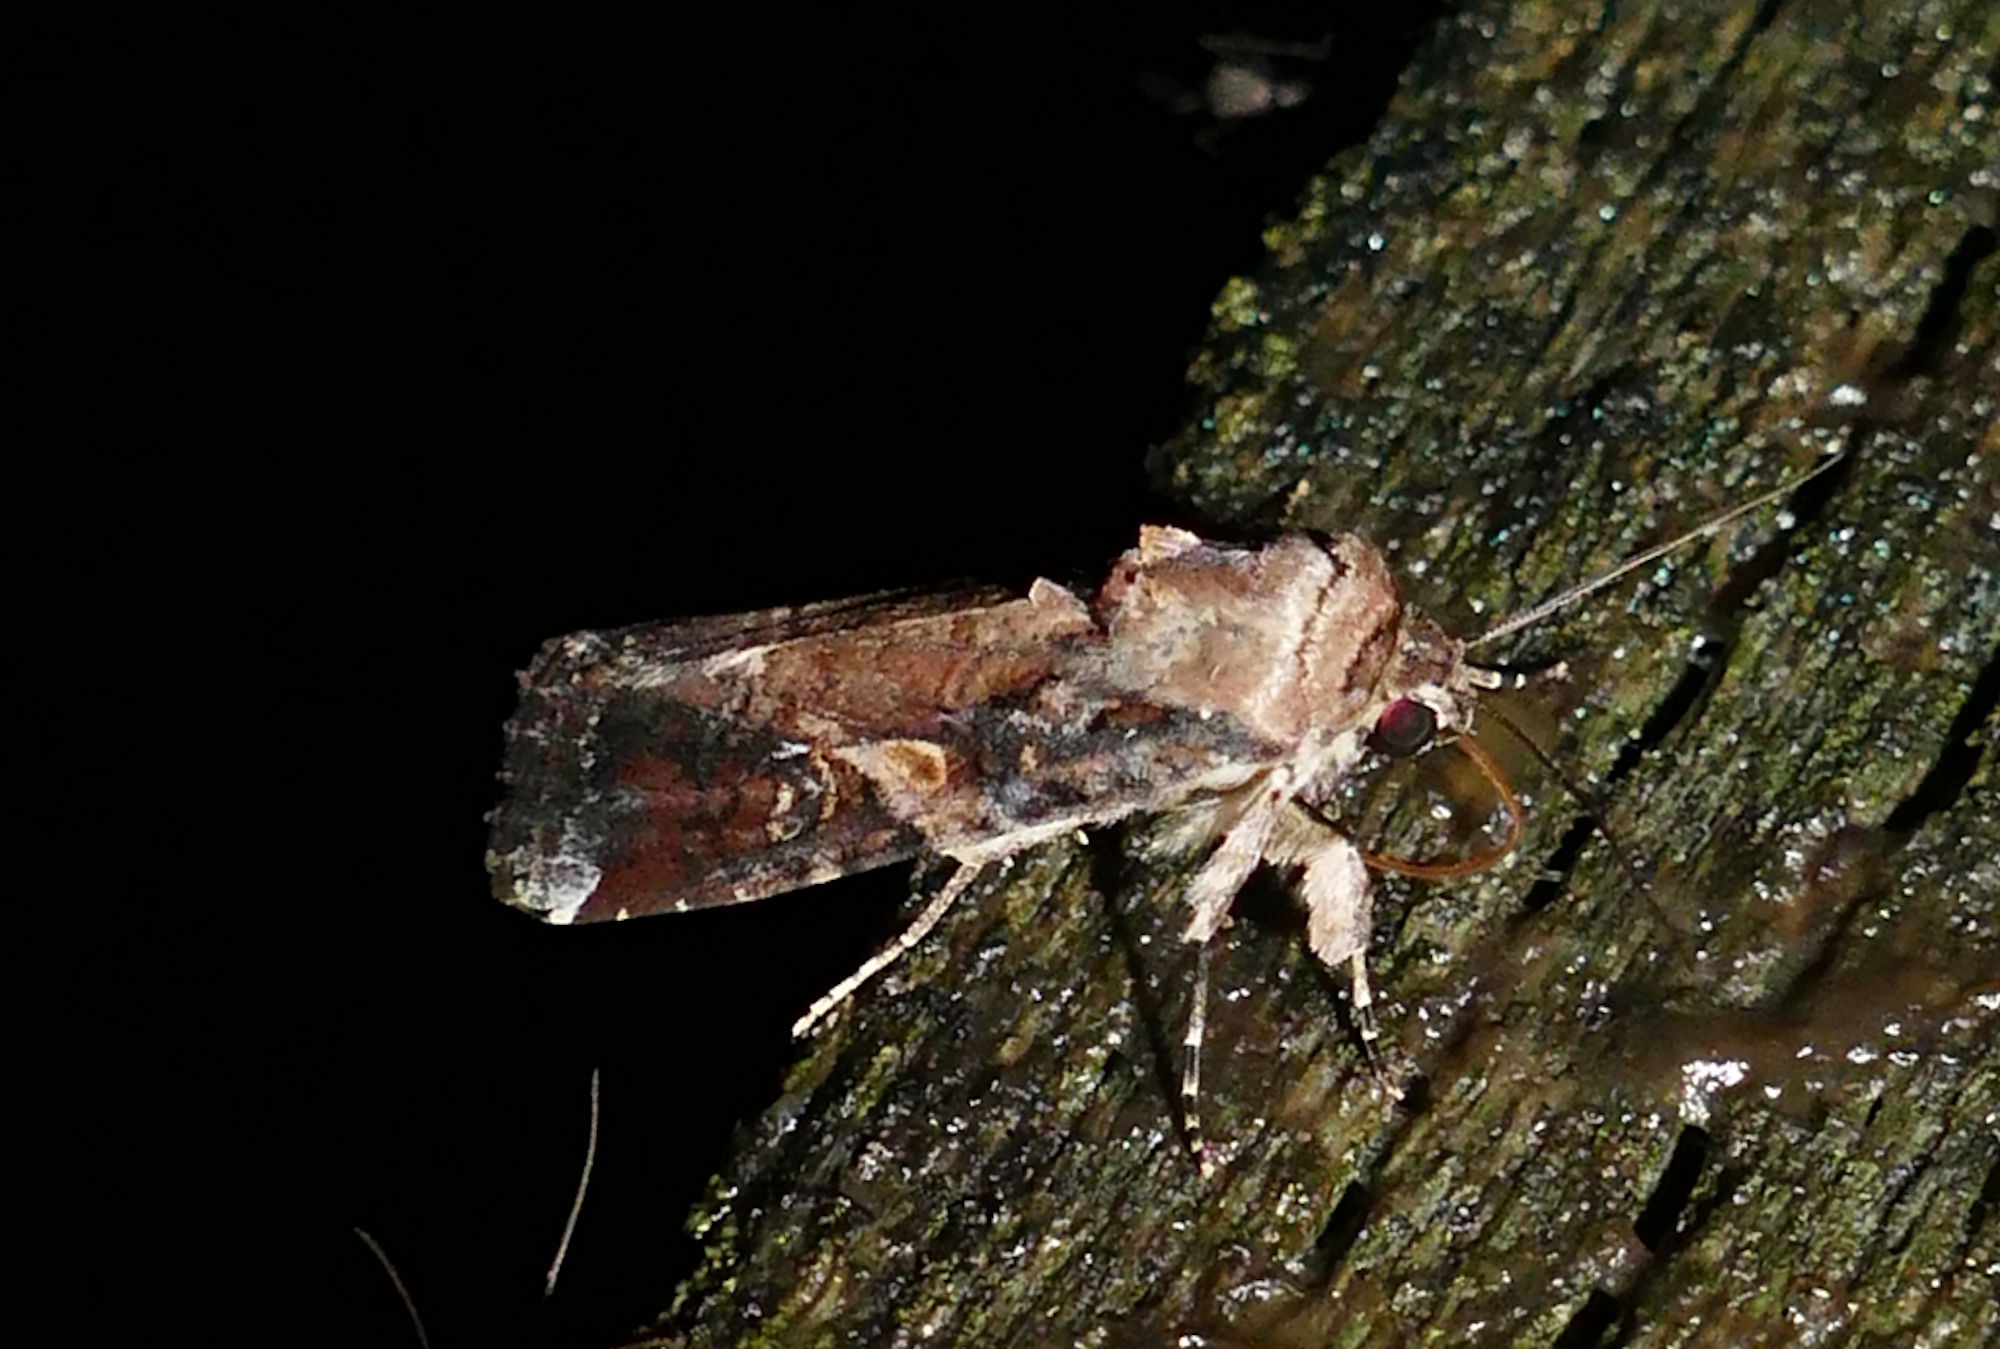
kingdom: Animalia
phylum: Arthropoda
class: Insecta
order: Lepidoptera
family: Noctuidae
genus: Spodoptera
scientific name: Spodoptera frugiperda
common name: Fall armyworm
